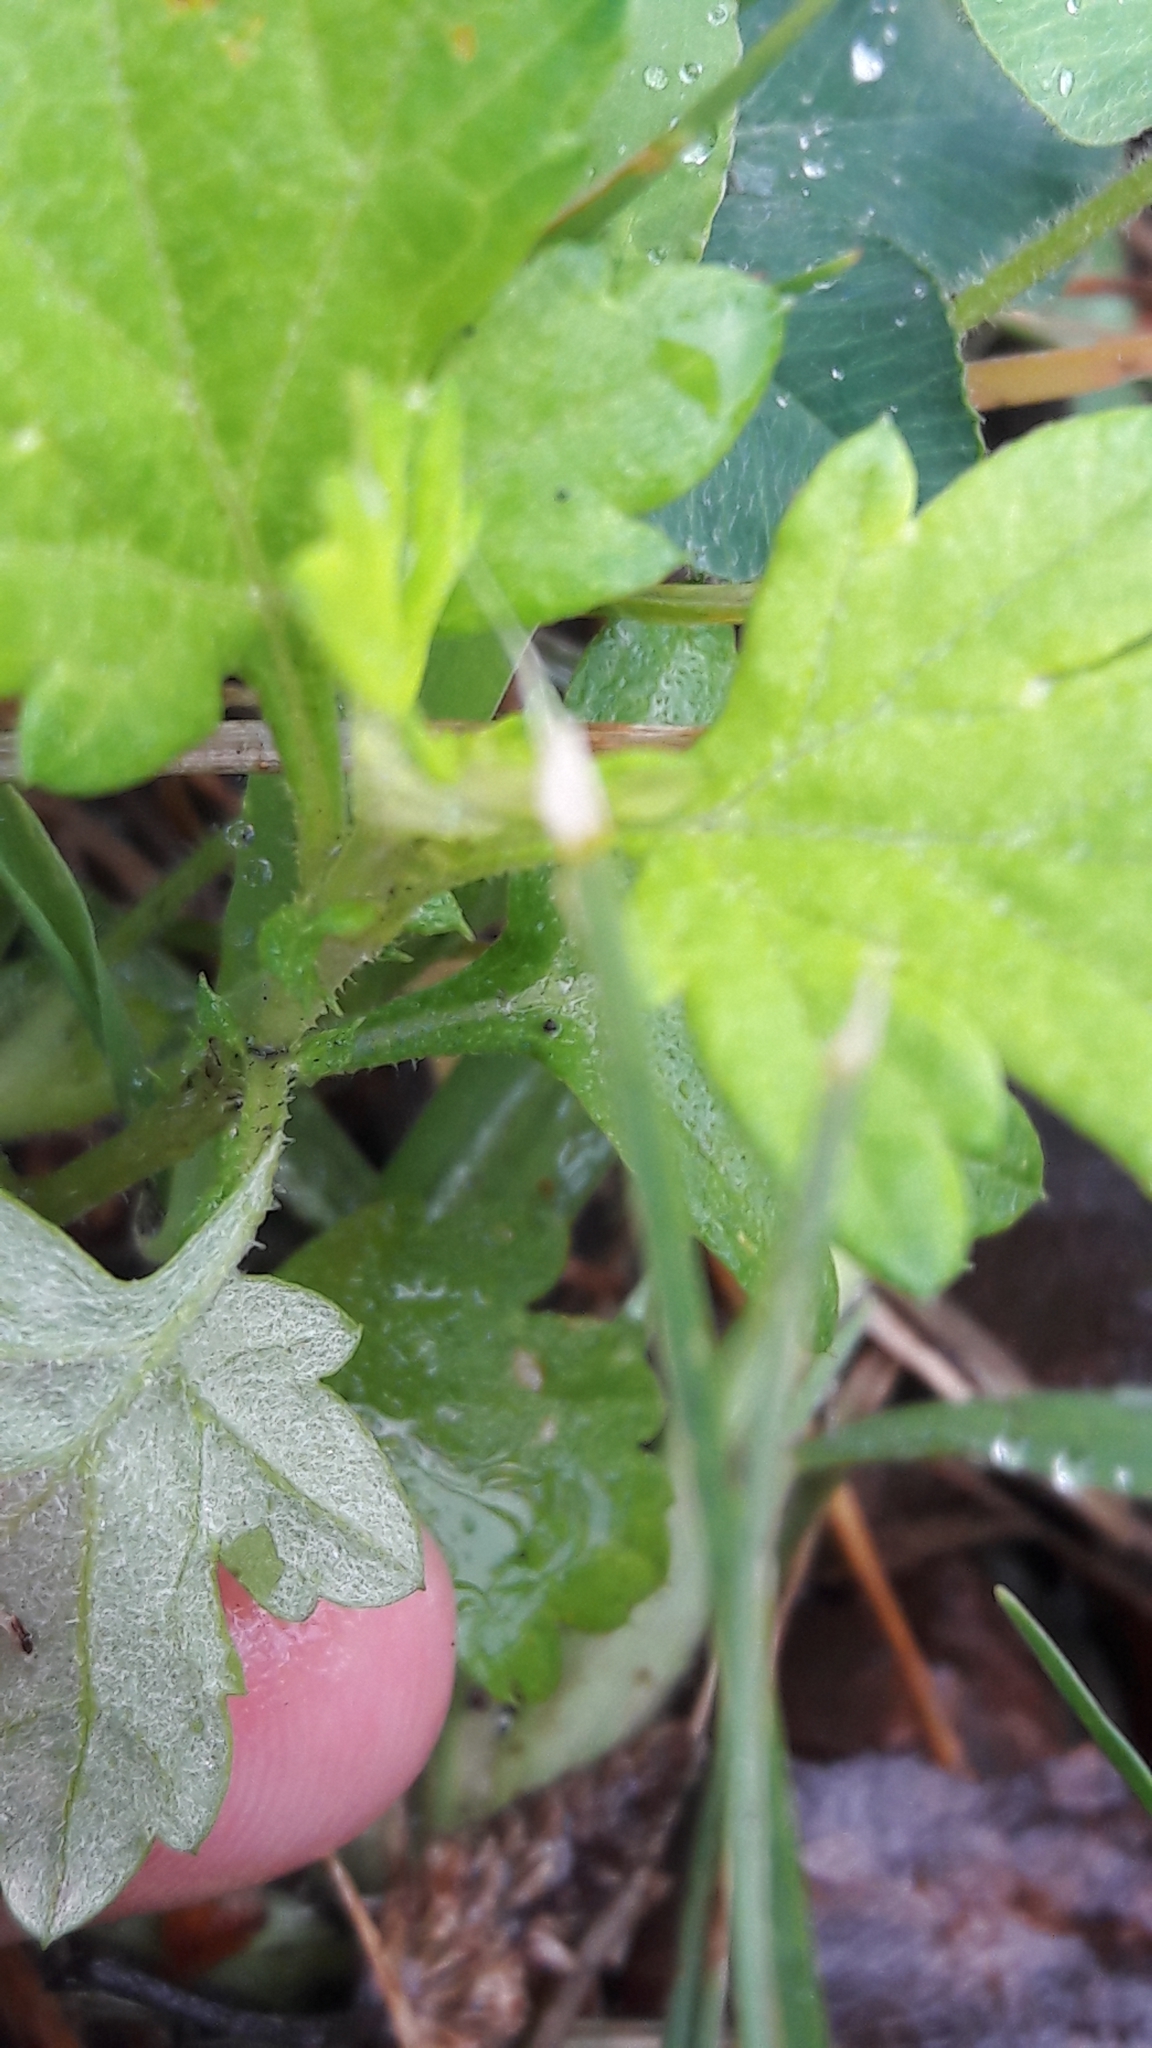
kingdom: Plantae
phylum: Tracheophyta
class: Magnoliopsida
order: Asterales
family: Asteraceae
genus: Artemisia
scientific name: Artemisia vulgaris
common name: Mugwort
